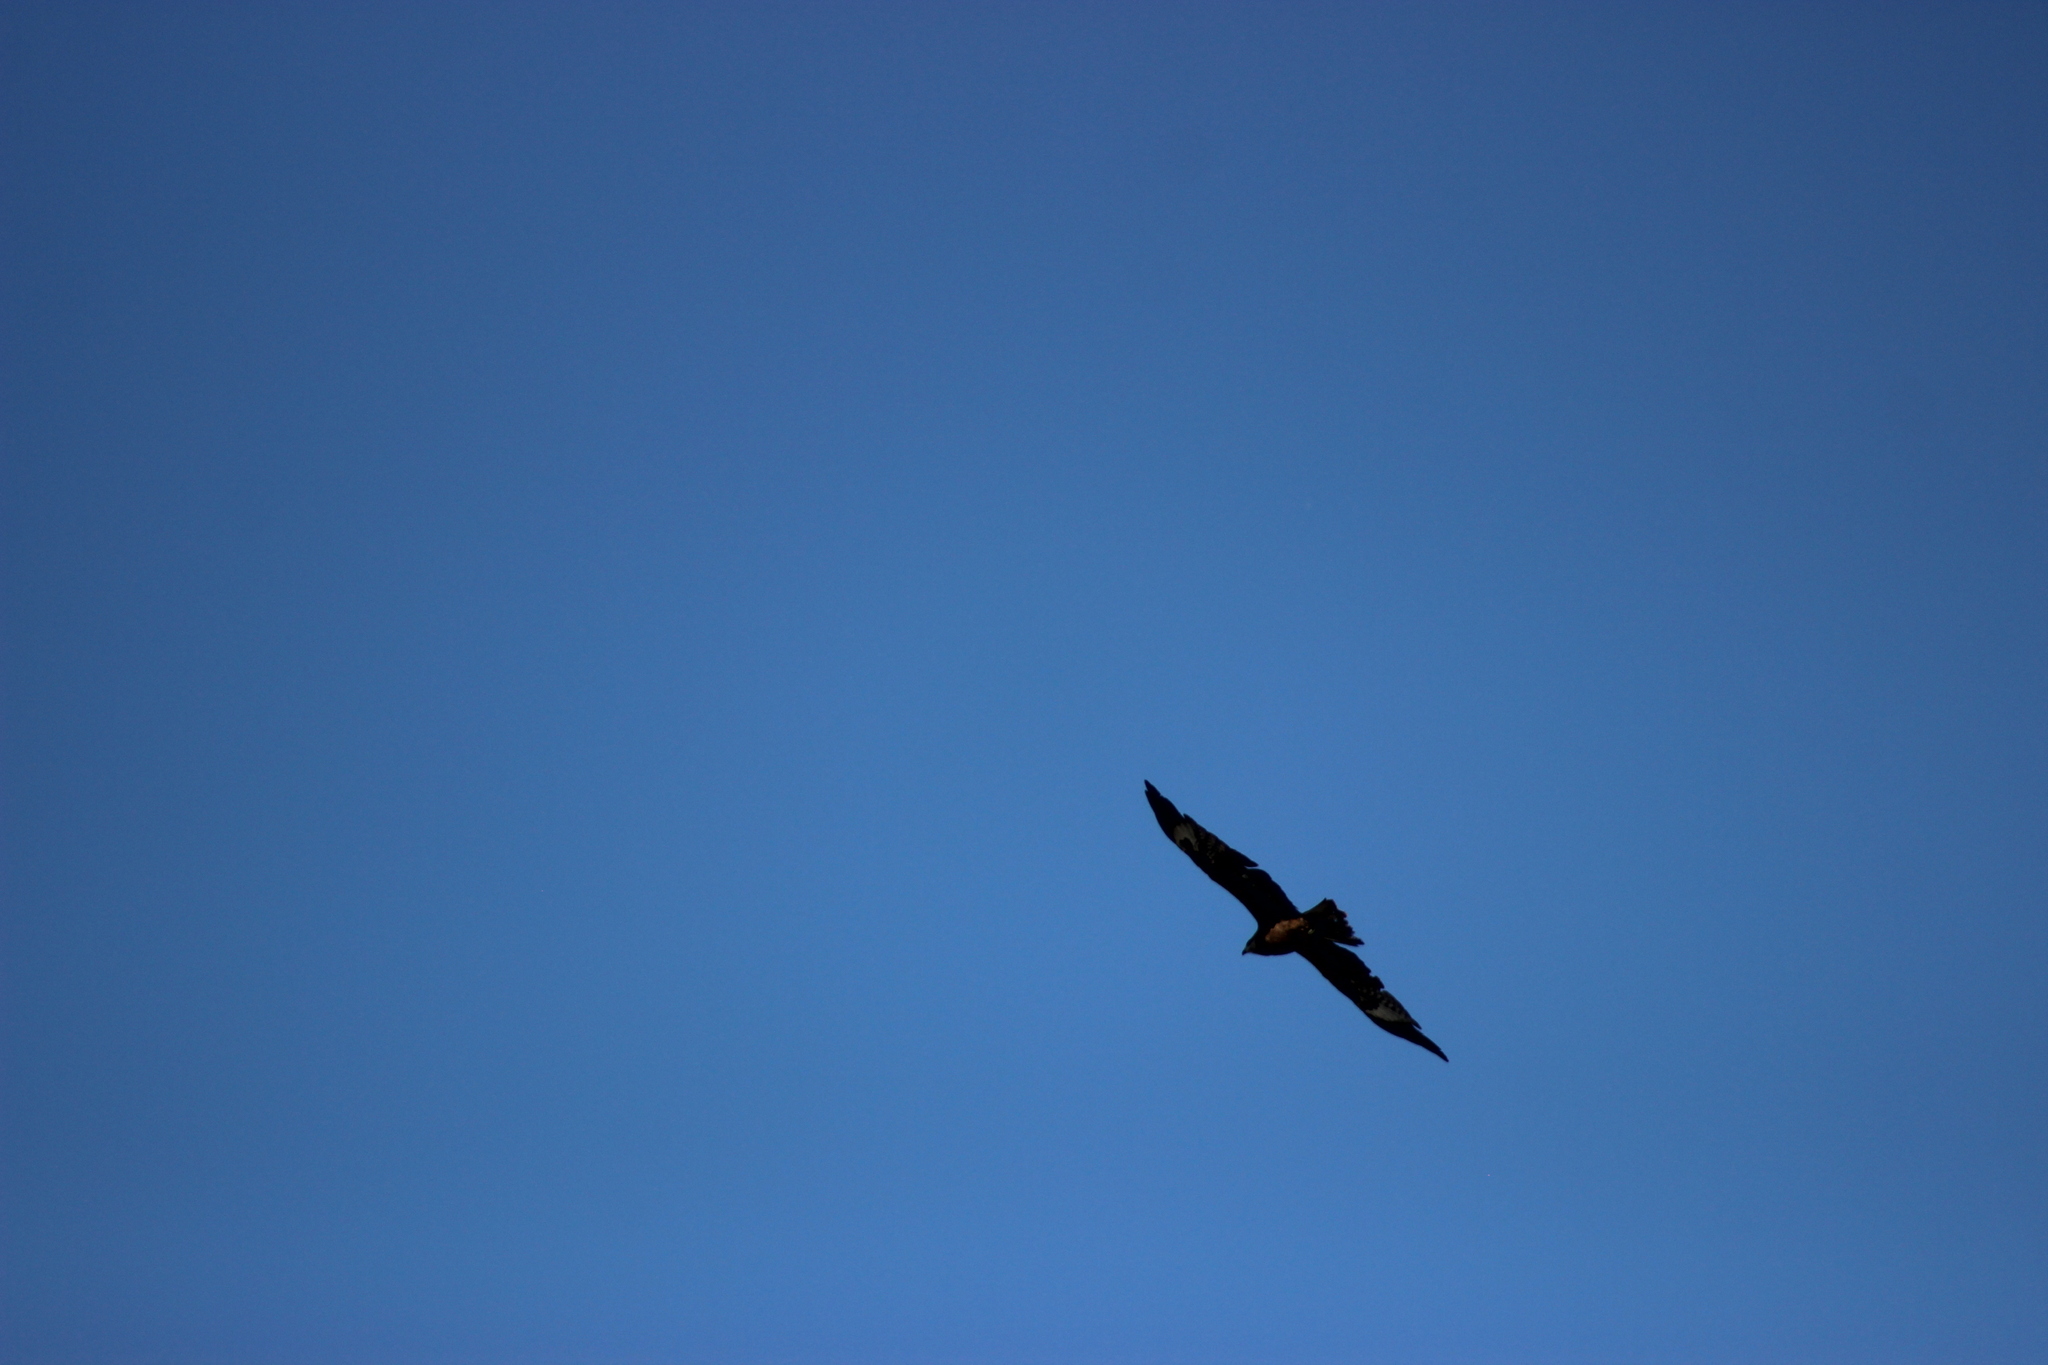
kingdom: Animalia
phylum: Chordata
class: Aves
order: Accipitriformes
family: Accipitridae
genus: Milvus
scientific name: Milvus migrans
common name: Black kite
